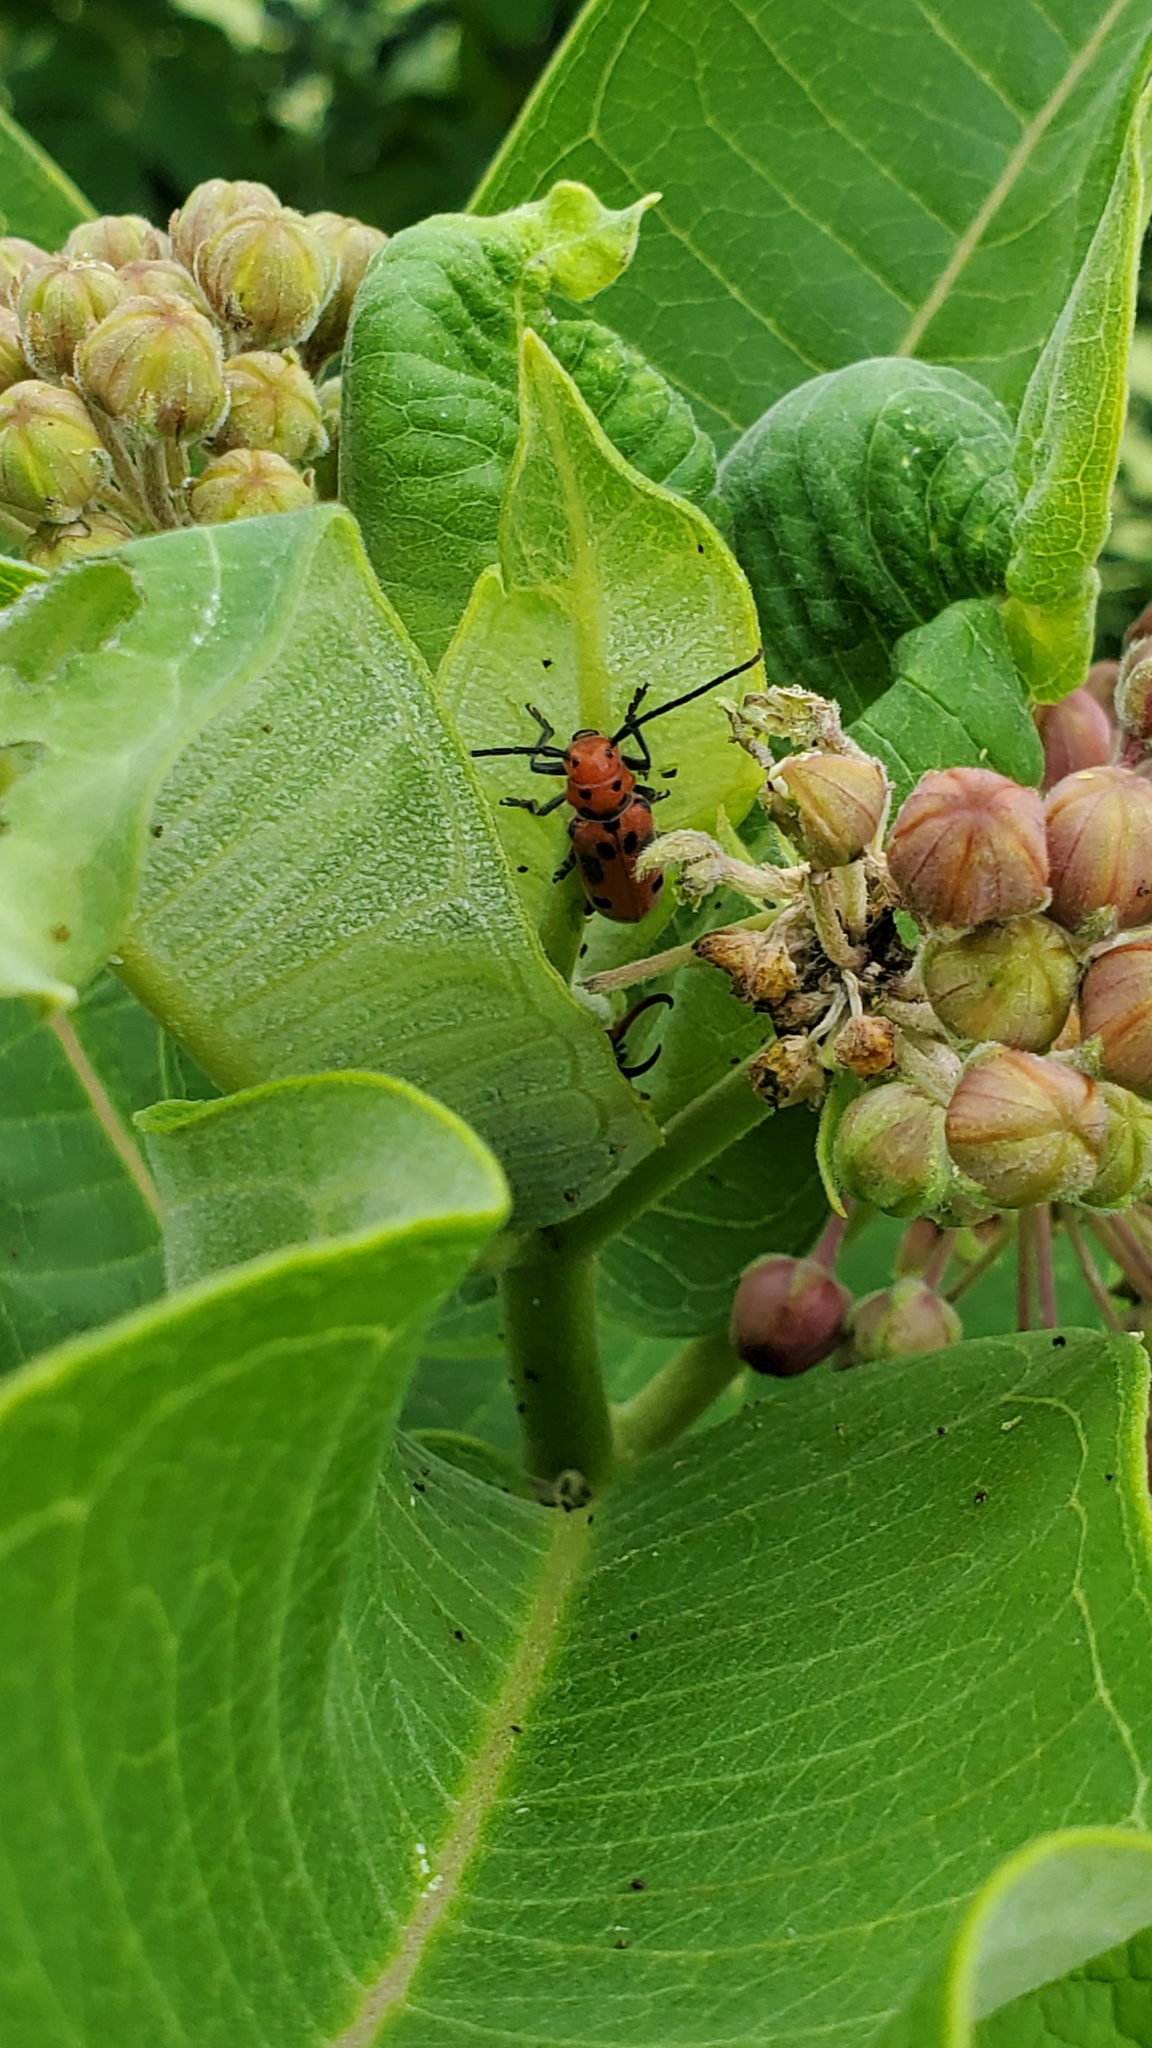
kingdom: Animalia
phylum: Arthropoda
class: Insecta
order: Coleoptera
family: Cerambycidae
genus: Tetraopes
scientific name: Tetraopes tetrophthalmus
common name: Red milkweed beetle
